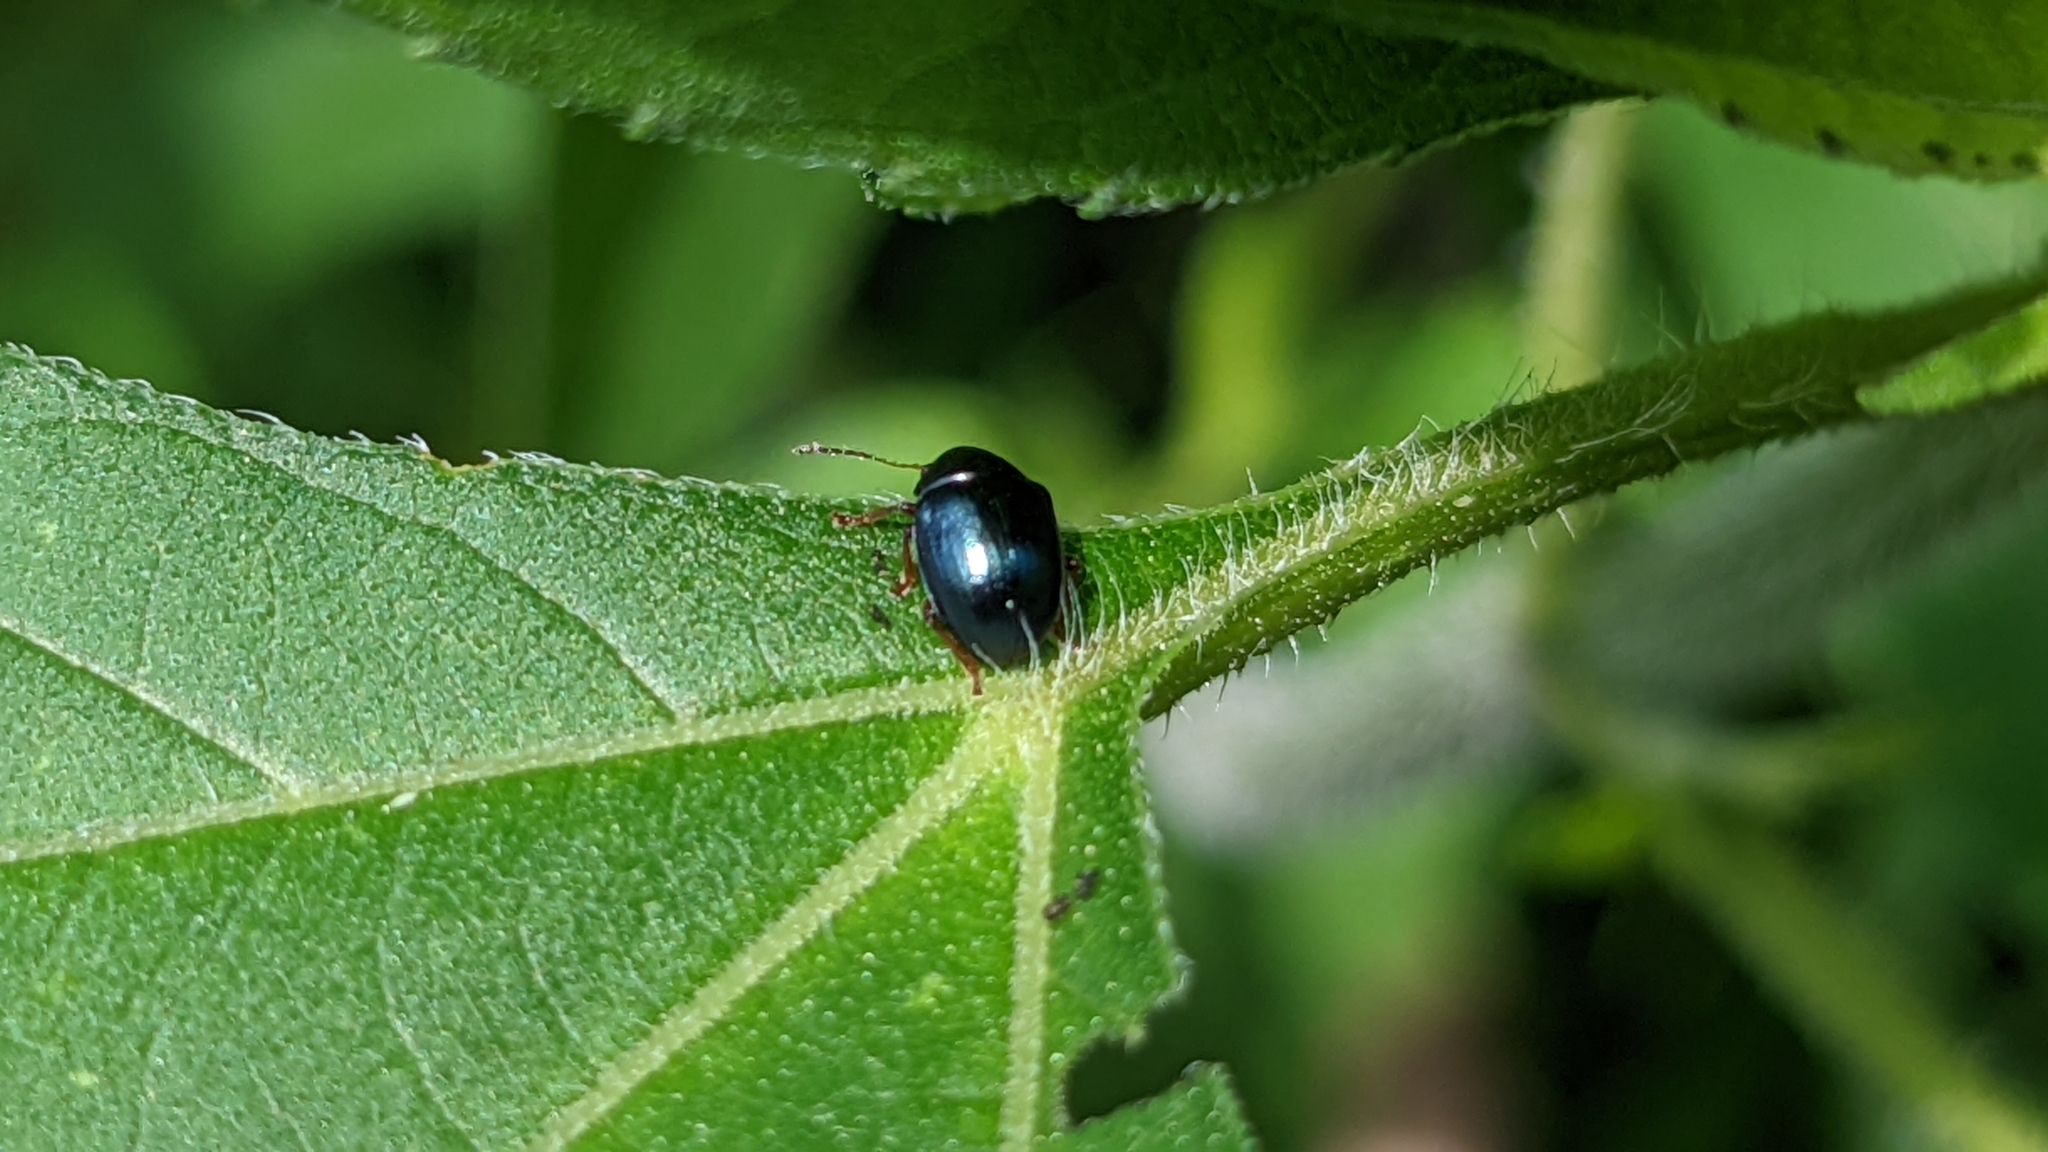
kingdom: Plantae
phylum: Tracheophyta
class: Magnoliopsida
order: Asterales
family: Asteraceae
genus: Ambrosia
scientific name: Ambrosia trifida
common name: Giant ragweed
